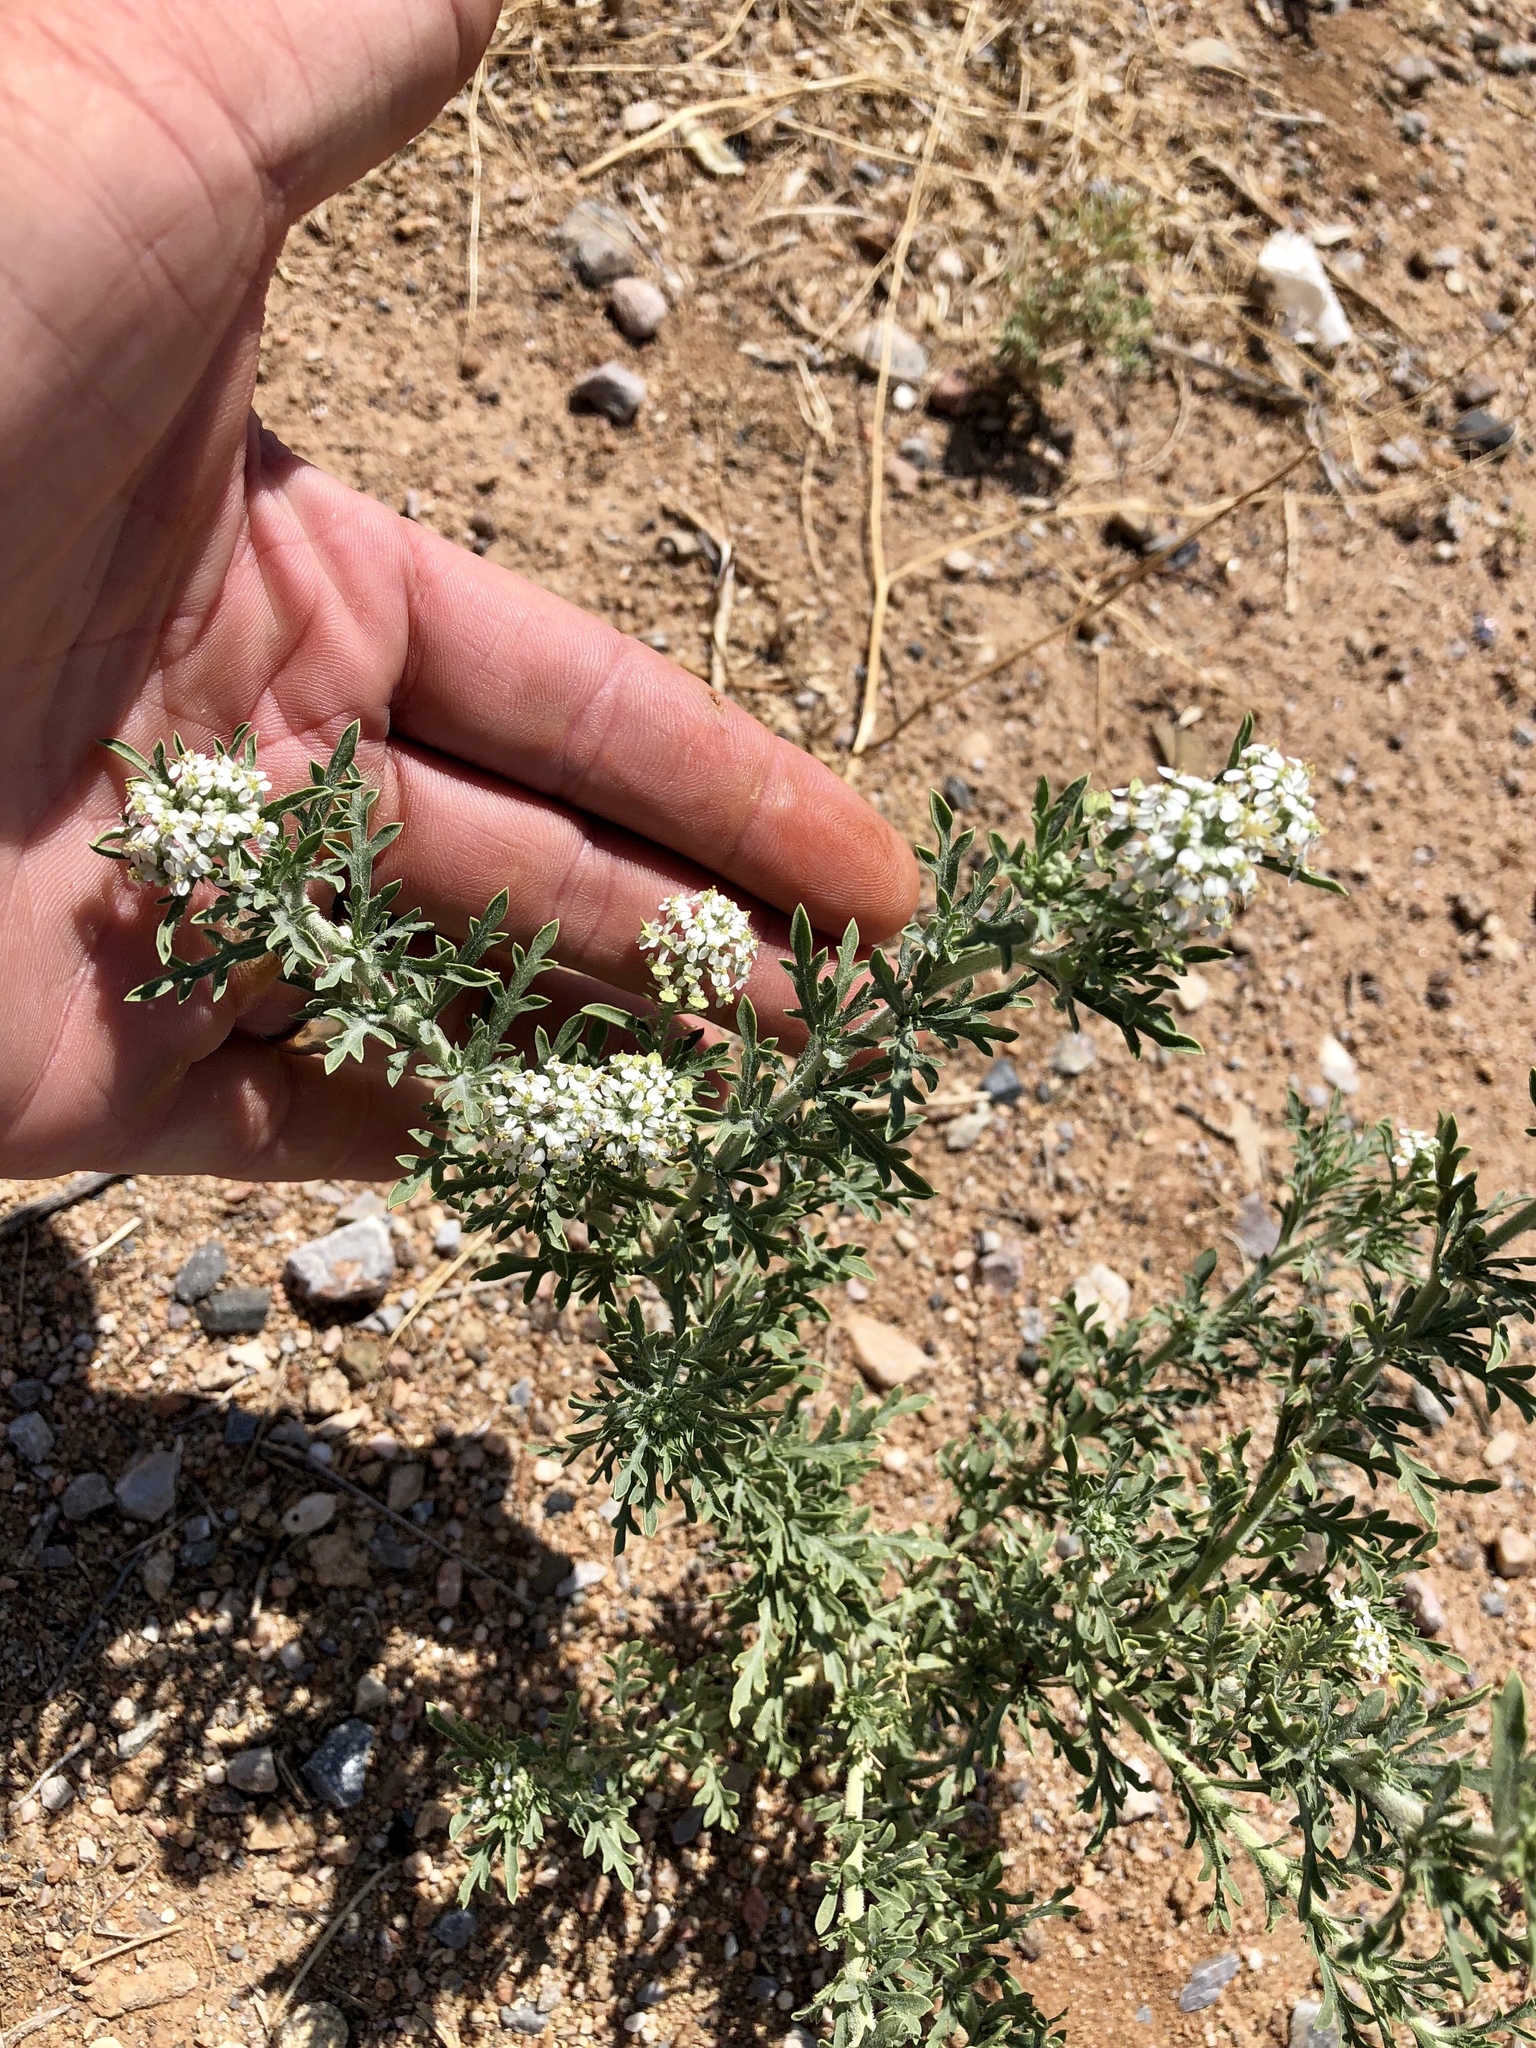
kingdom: Plantae
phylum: Tracheophyta
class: Magnoliopsida
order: Brassicales
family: Brassicaceae
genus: Lepidium
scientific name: Lepidium thurberi
